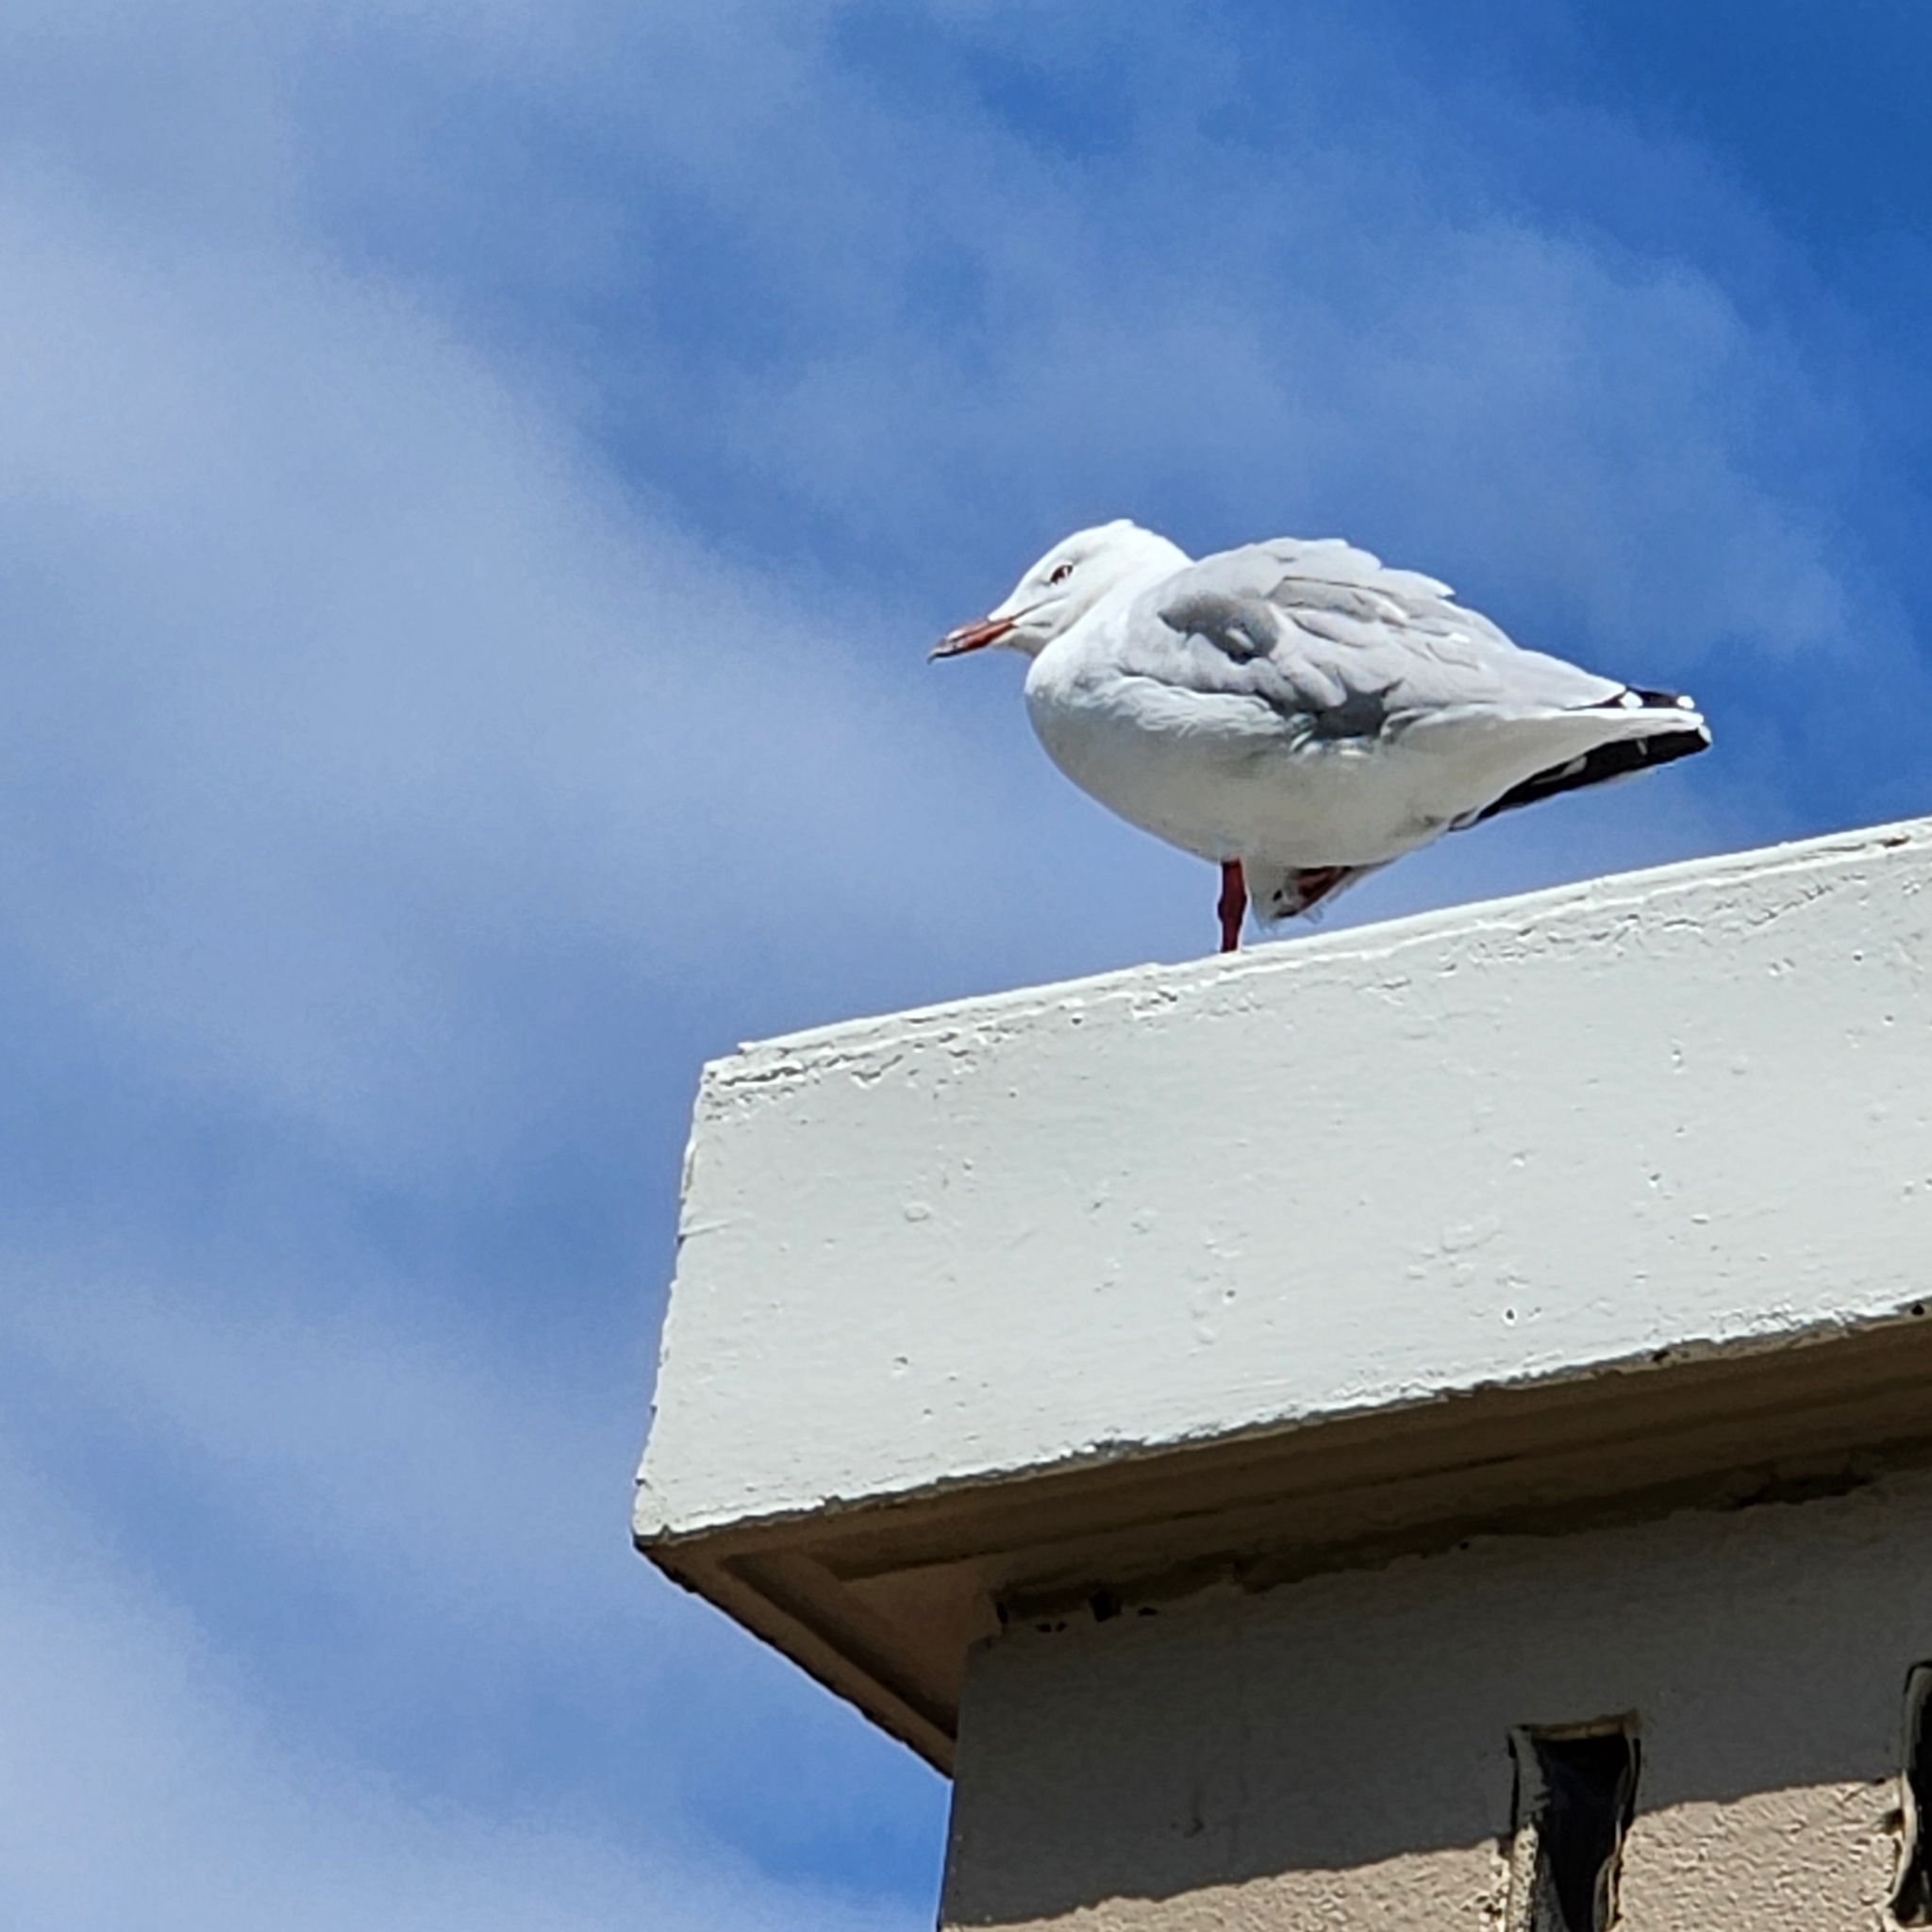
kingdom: Animalia
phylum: Chordata
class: Aves
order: Charadriiformes
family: Laridae
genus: Chroicocephalus
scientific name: Chroicocephalus novaehollandiae
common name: Silver gull
